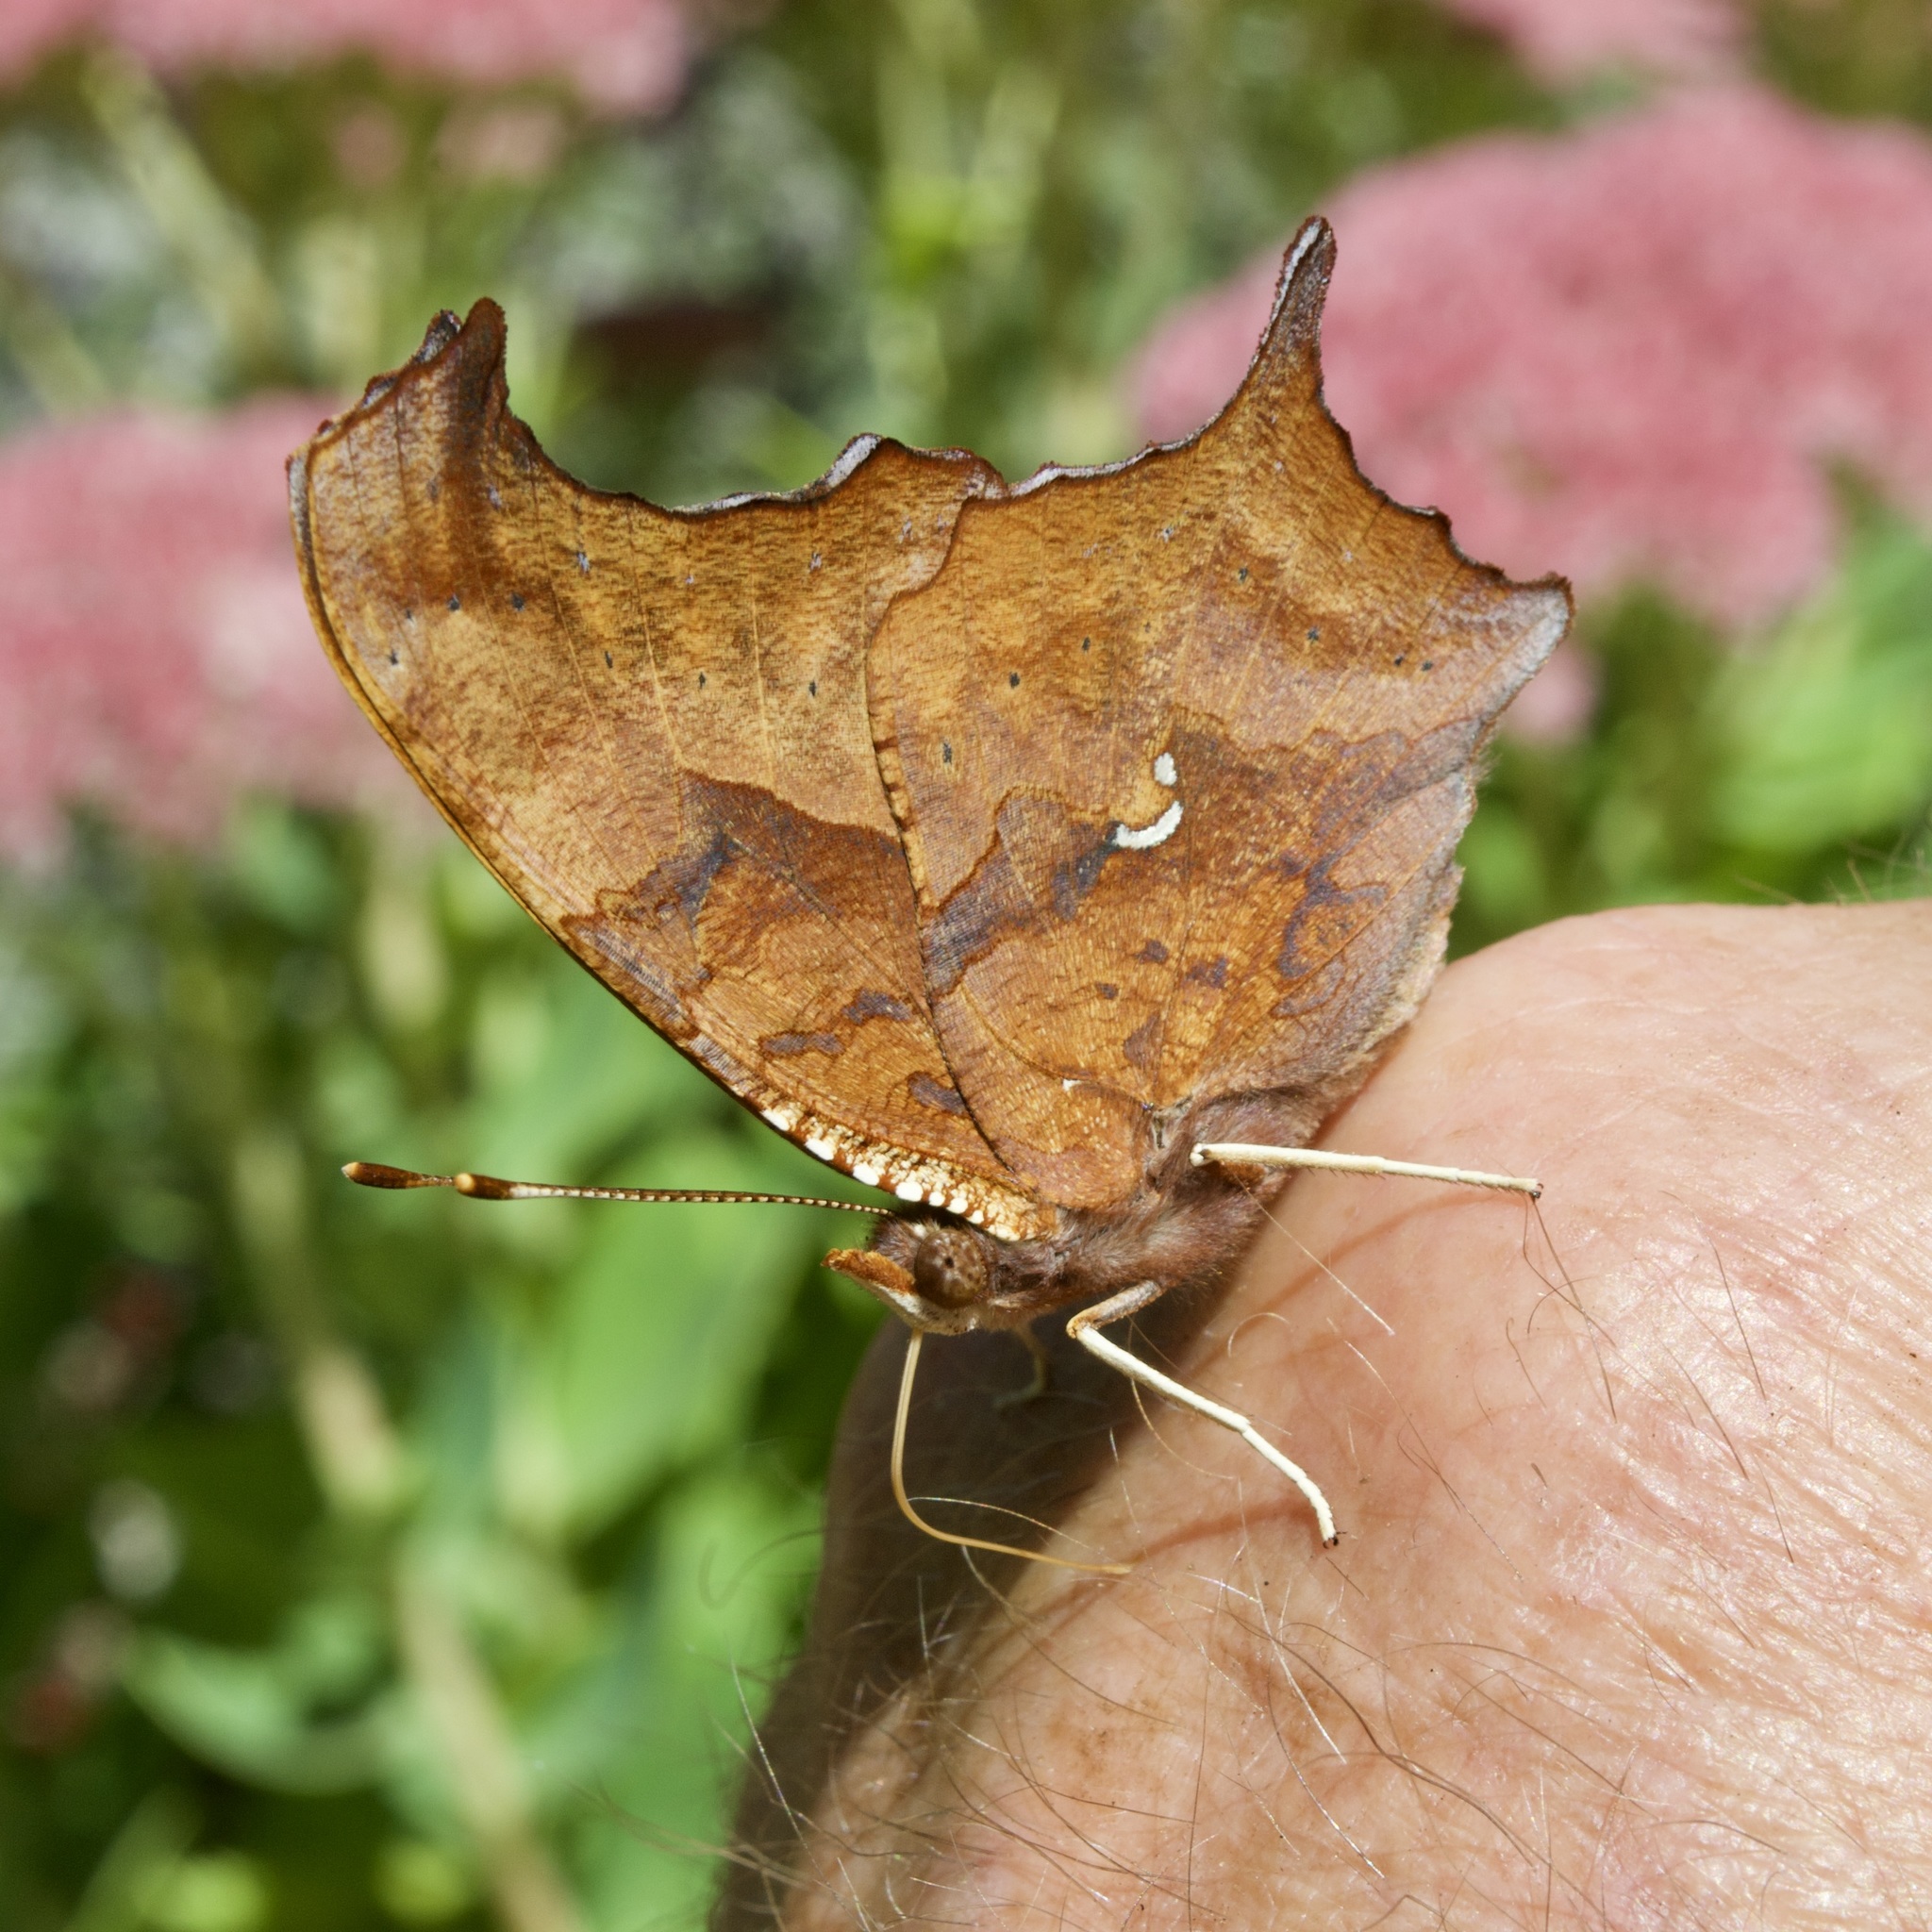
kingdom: Animalia
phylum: Arthropoda
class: Insecta
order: Lepidoptera
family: Nymphalidae
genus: Polygonia
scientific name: Polygonia interrogationis
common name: Question mark
